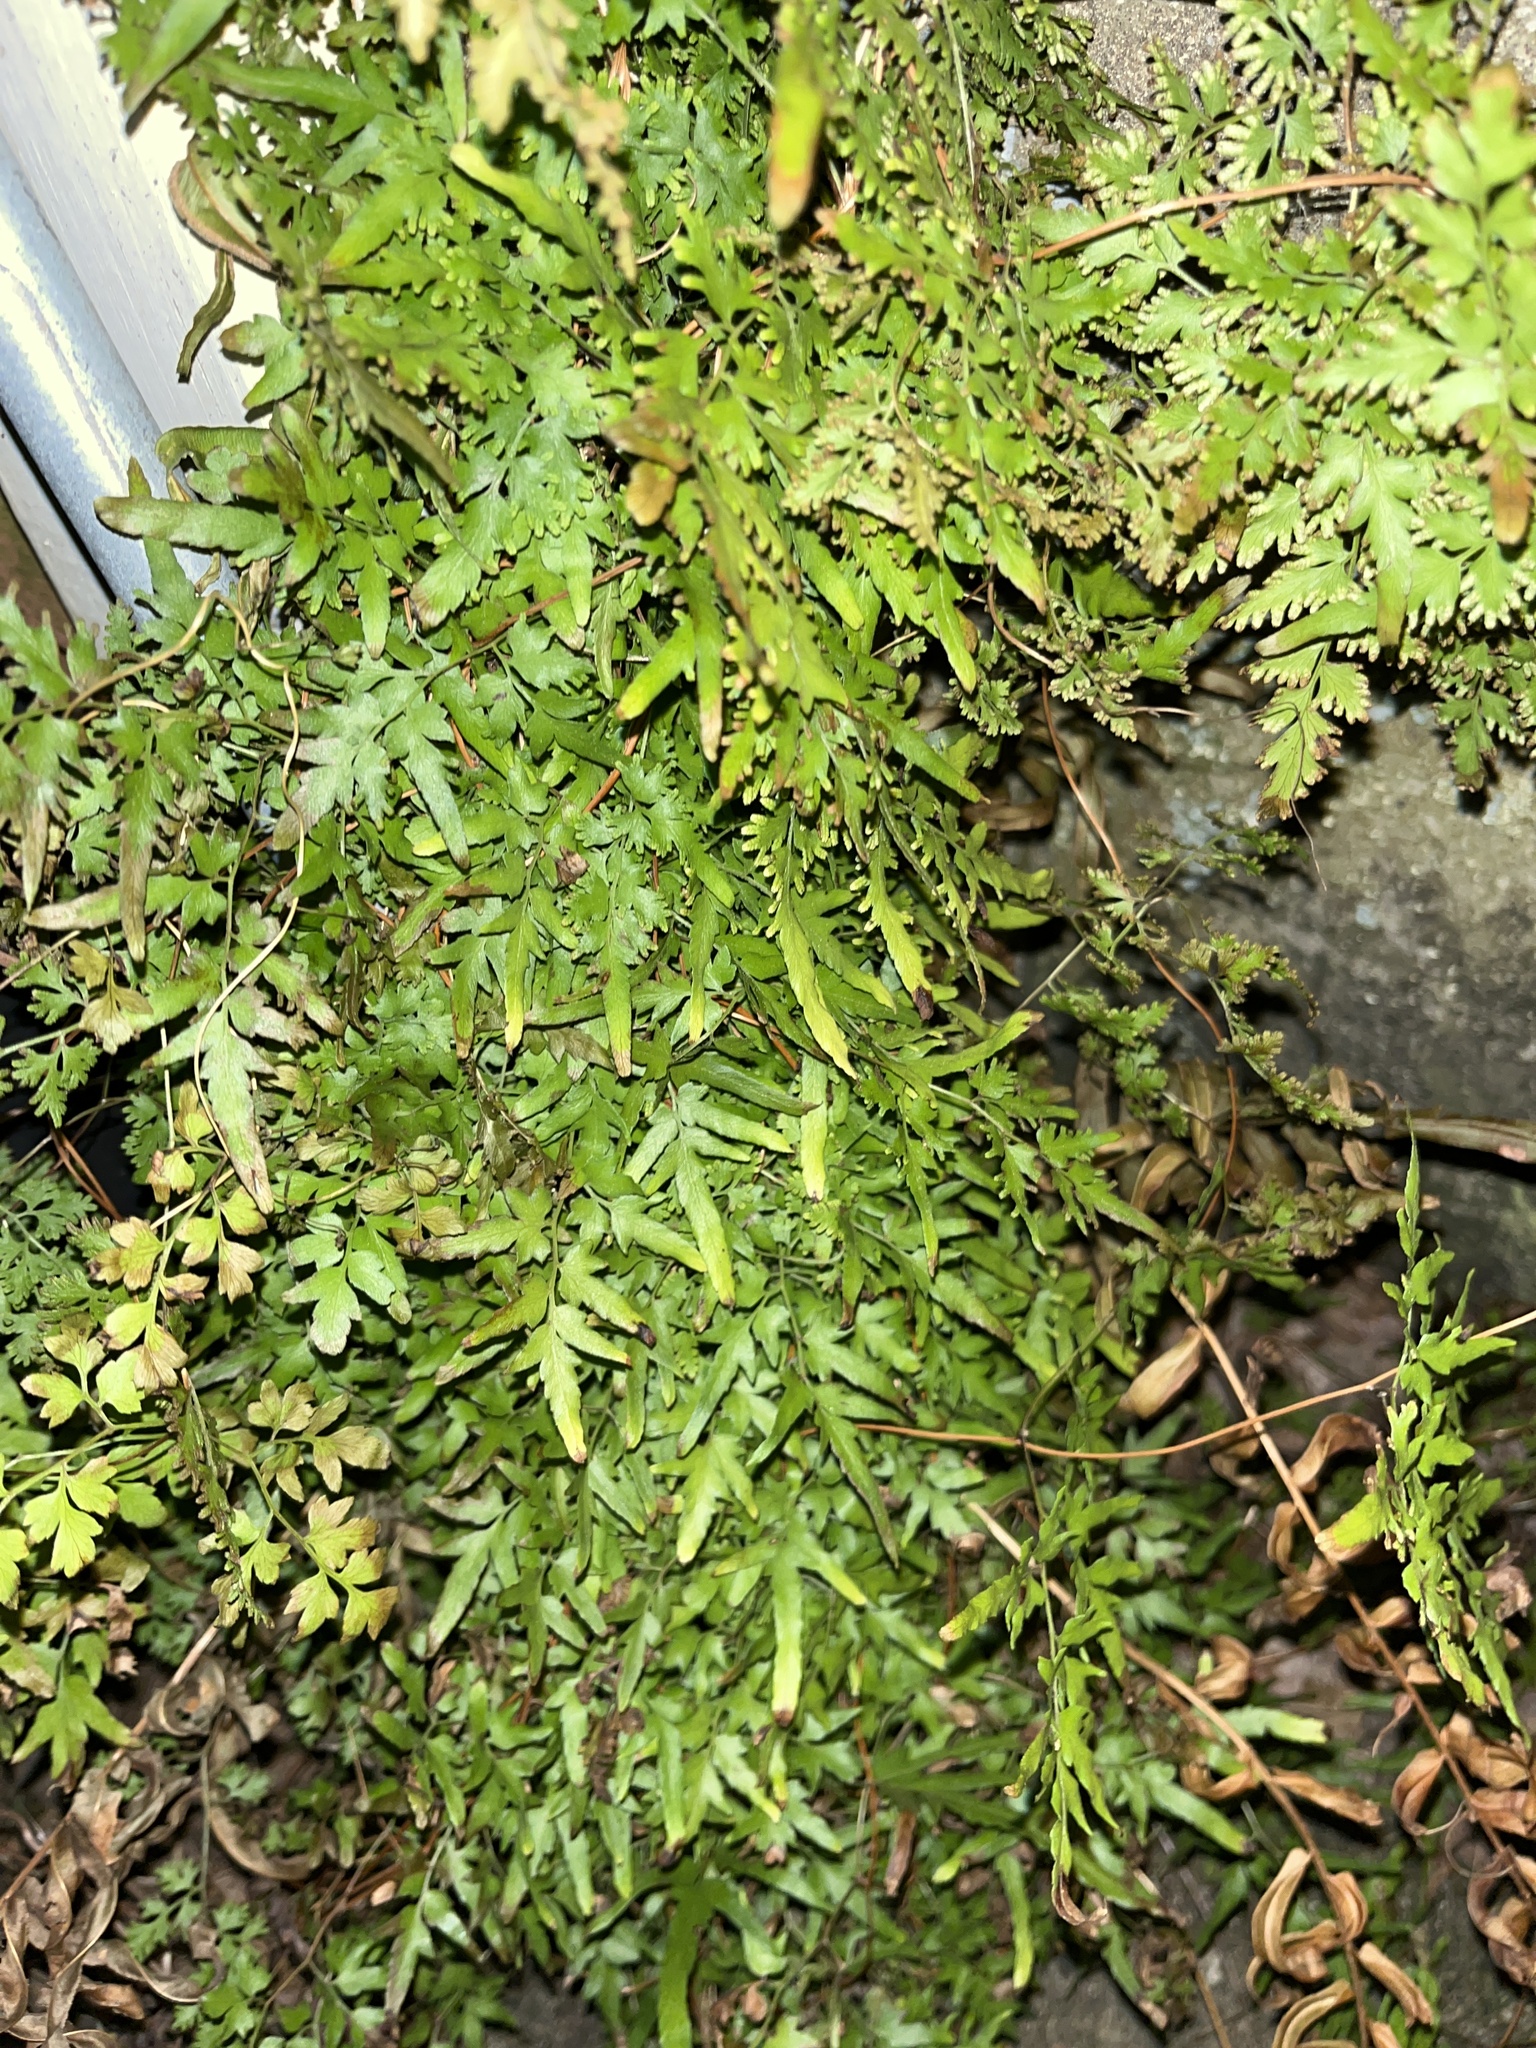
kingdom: Plantae
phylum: Tracheophyta
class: Polypodiopsida
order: Schizaeales
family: Lygodiaceae
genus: Lygodium
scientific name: Lygodium japonicum
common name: Japanese climbing fern
